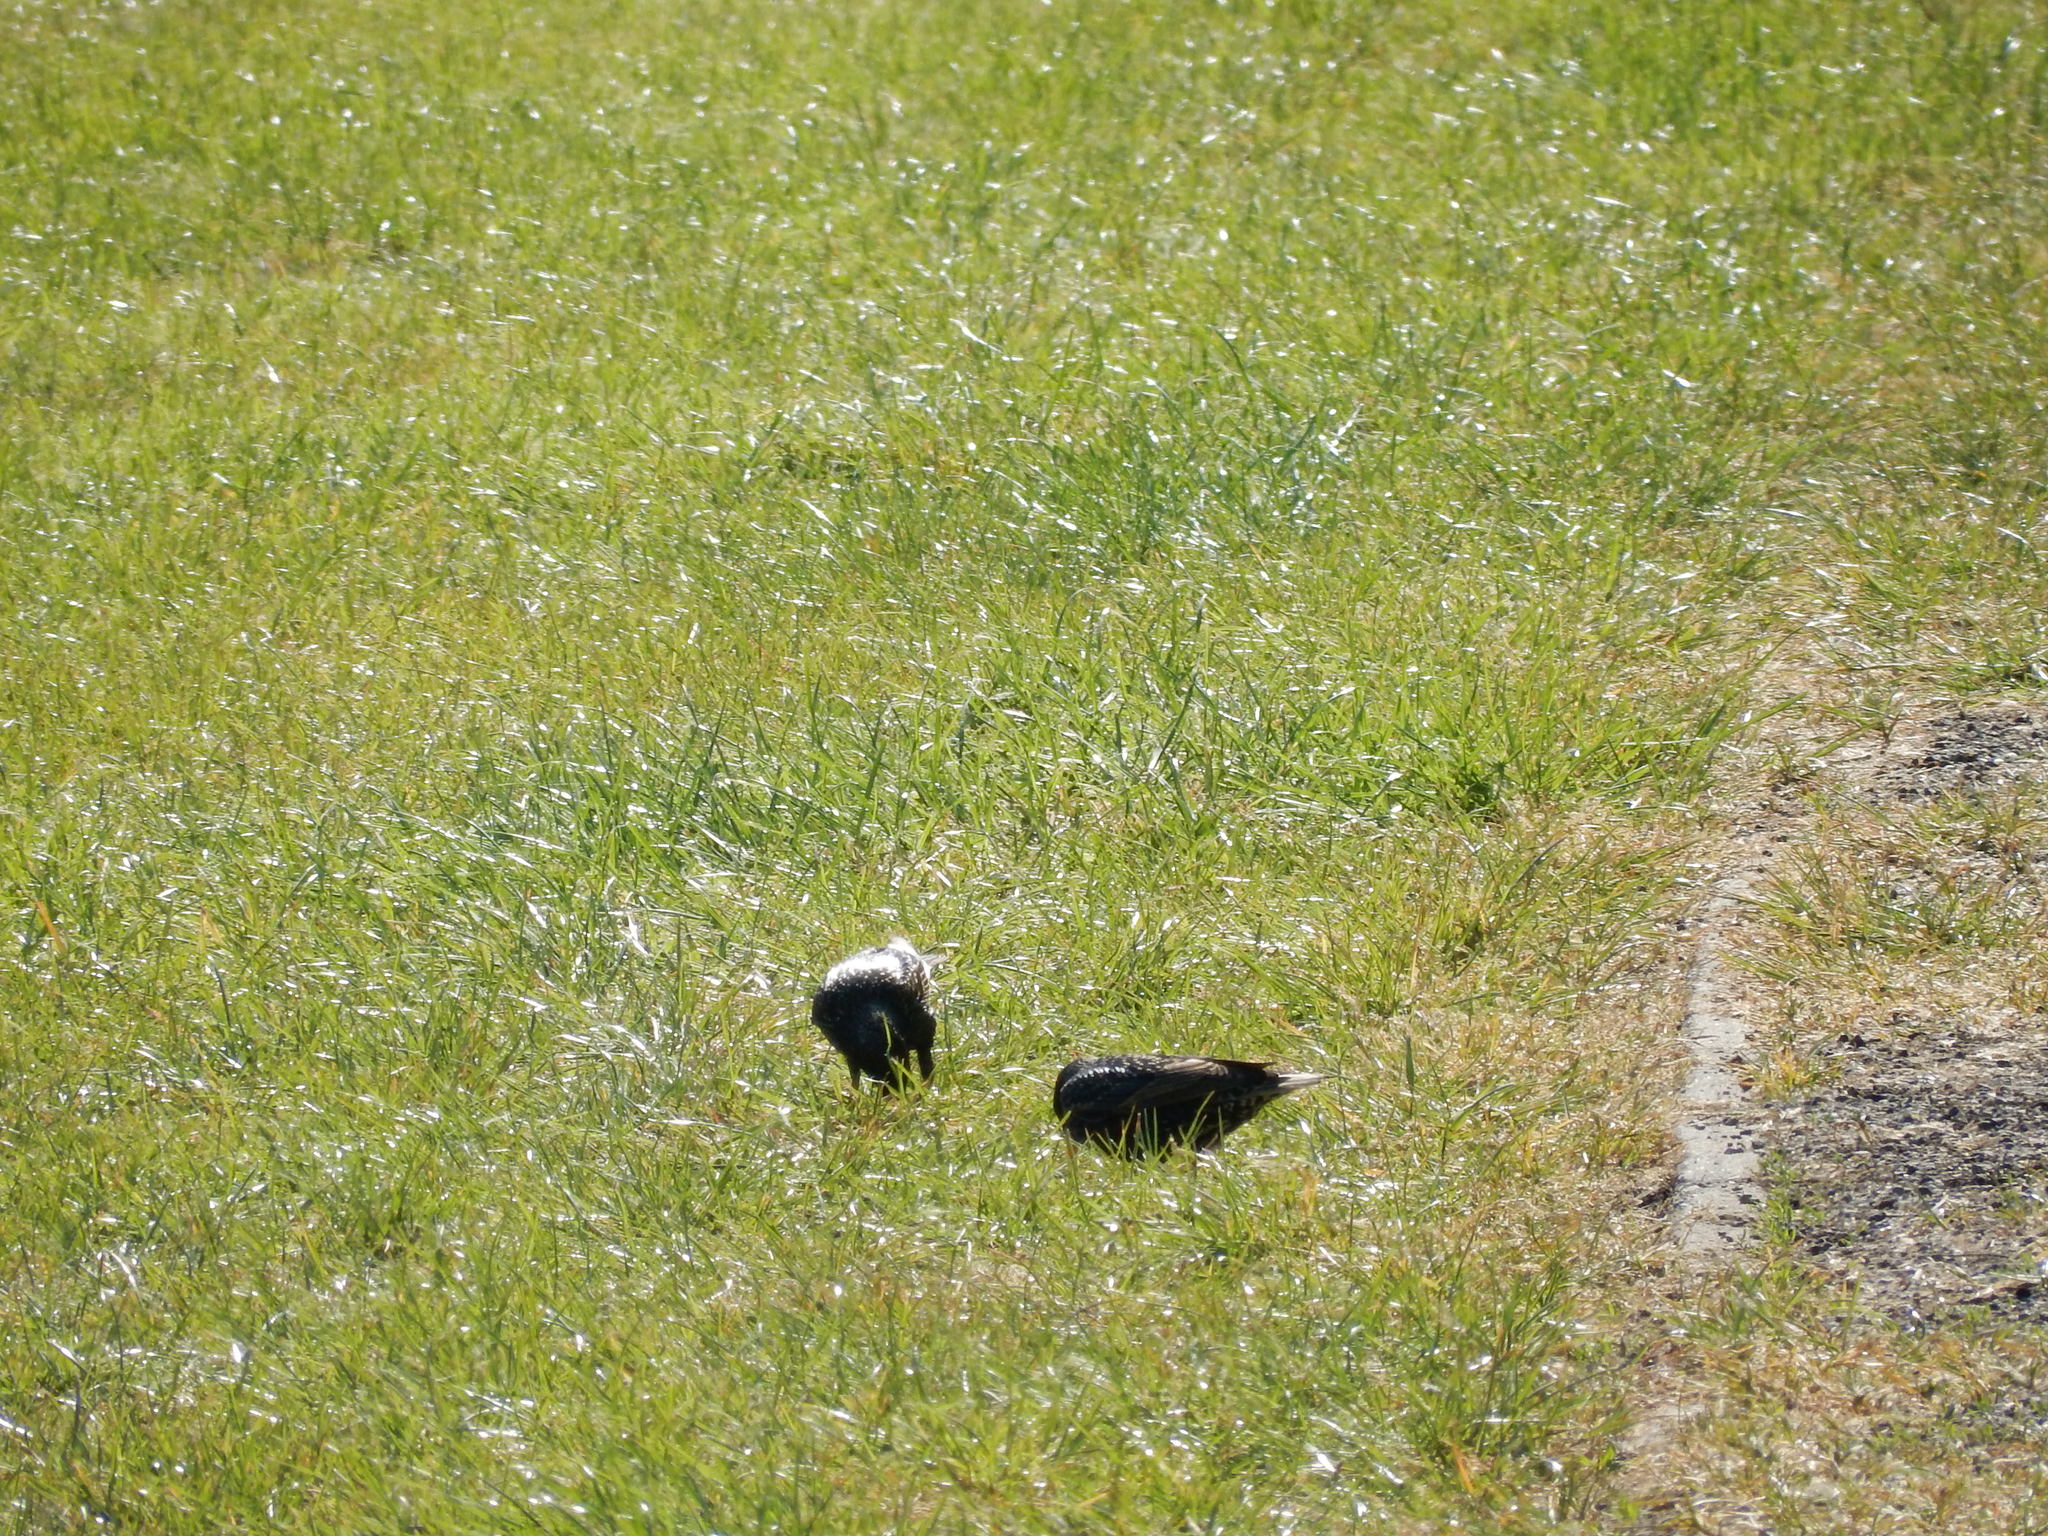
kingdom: Animalia
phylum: Chordata
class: Aves
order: Passeriformes
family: Sturnidae
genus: Sturnus
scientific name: Sturnus vulgaris
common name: Common starling
